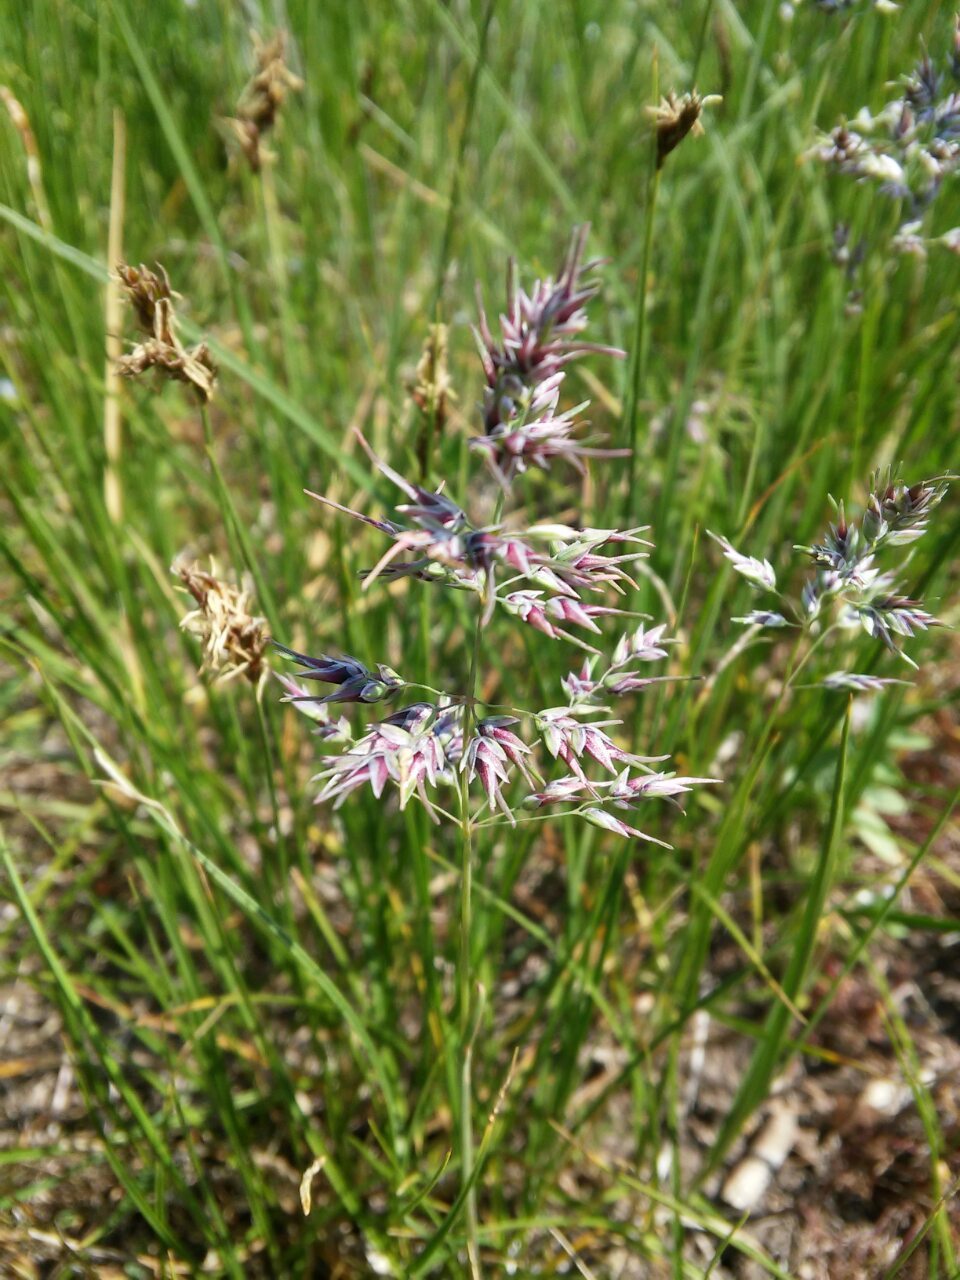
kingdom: Plantae
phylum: Tracheophyta
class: Liliopsida
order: Poales
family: Poaceae
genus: Poa
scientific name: Poa bulbosa
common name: Bulbous bluegrass
